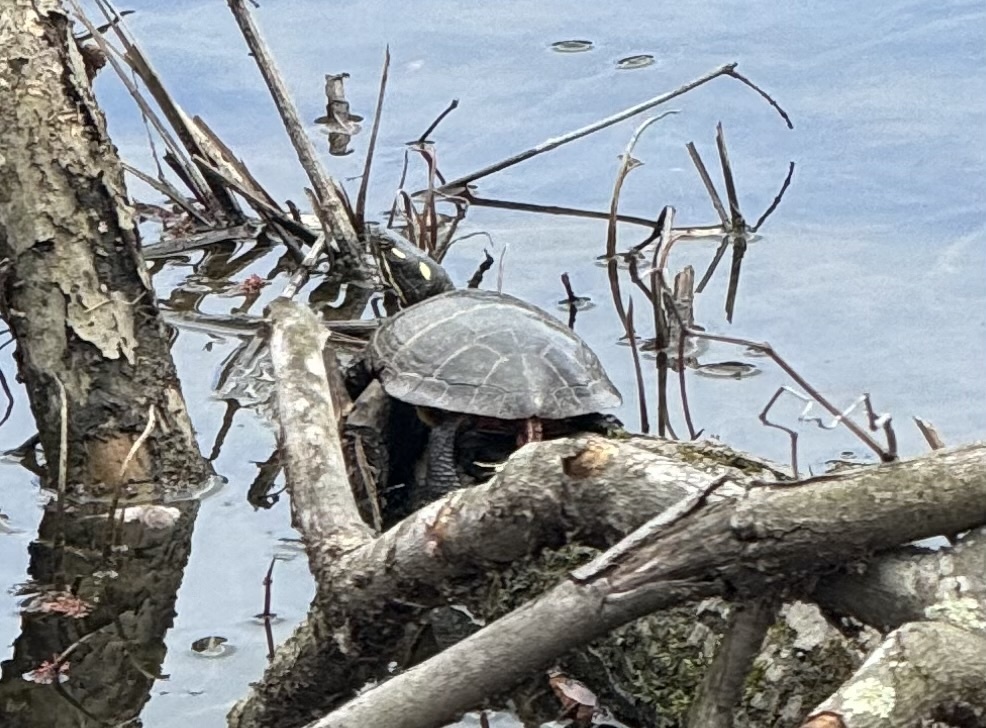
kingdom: Animalia
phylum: Chordata
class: Testudines
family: Emydidae
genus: Chrysemys
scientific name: Chrysemys picta
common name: Painted turtle
